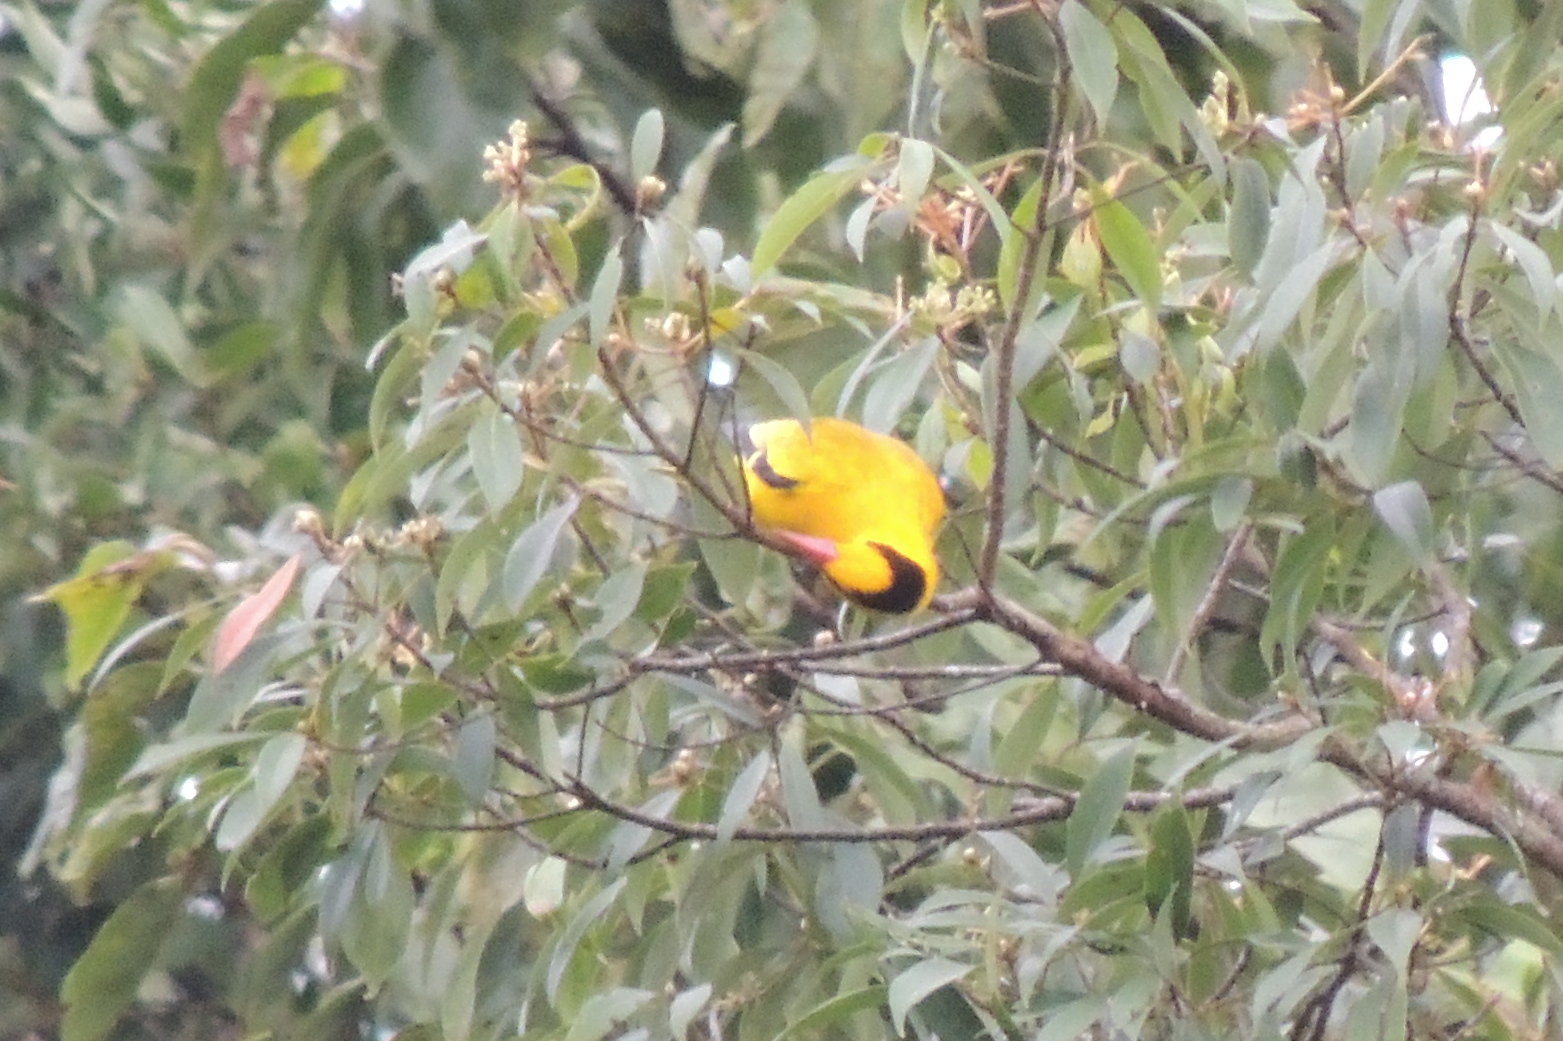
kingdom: Animalia
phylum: Chordata
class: Aves
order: Passeriformes
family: Oriolidae
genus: Oriolus
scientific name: Oriolus chinensis
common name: Black-naped oriole
